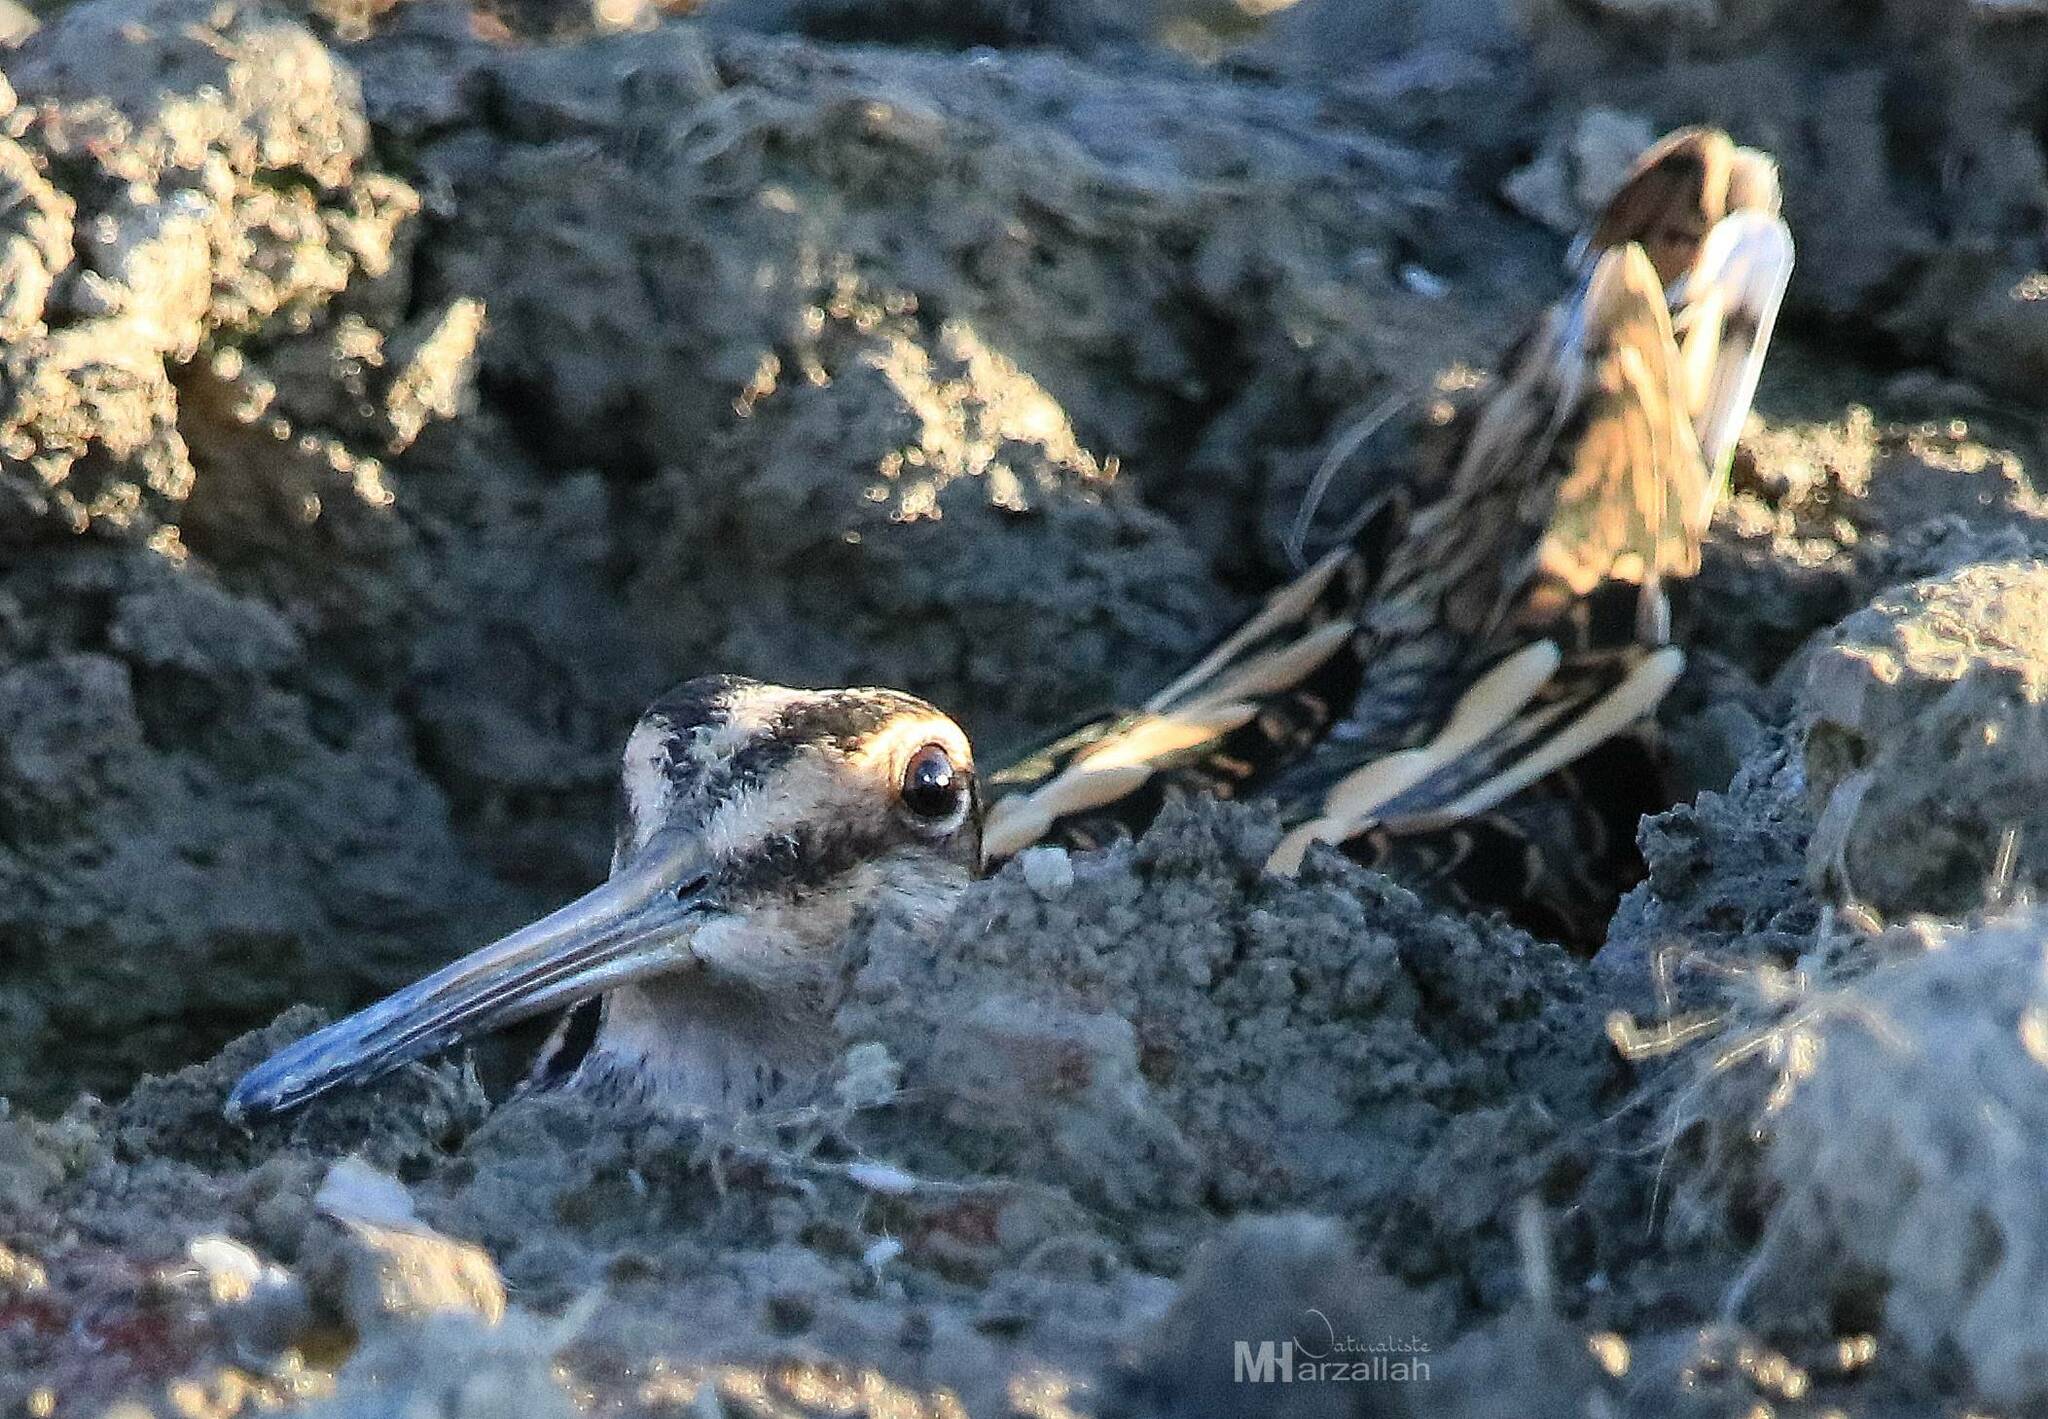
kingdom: Animalia
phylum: Chordata
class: Aves
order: Charadriiformes
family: Scolopacidae
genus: Gallinago
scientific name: Gallinago gallinago
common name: Common snipe
